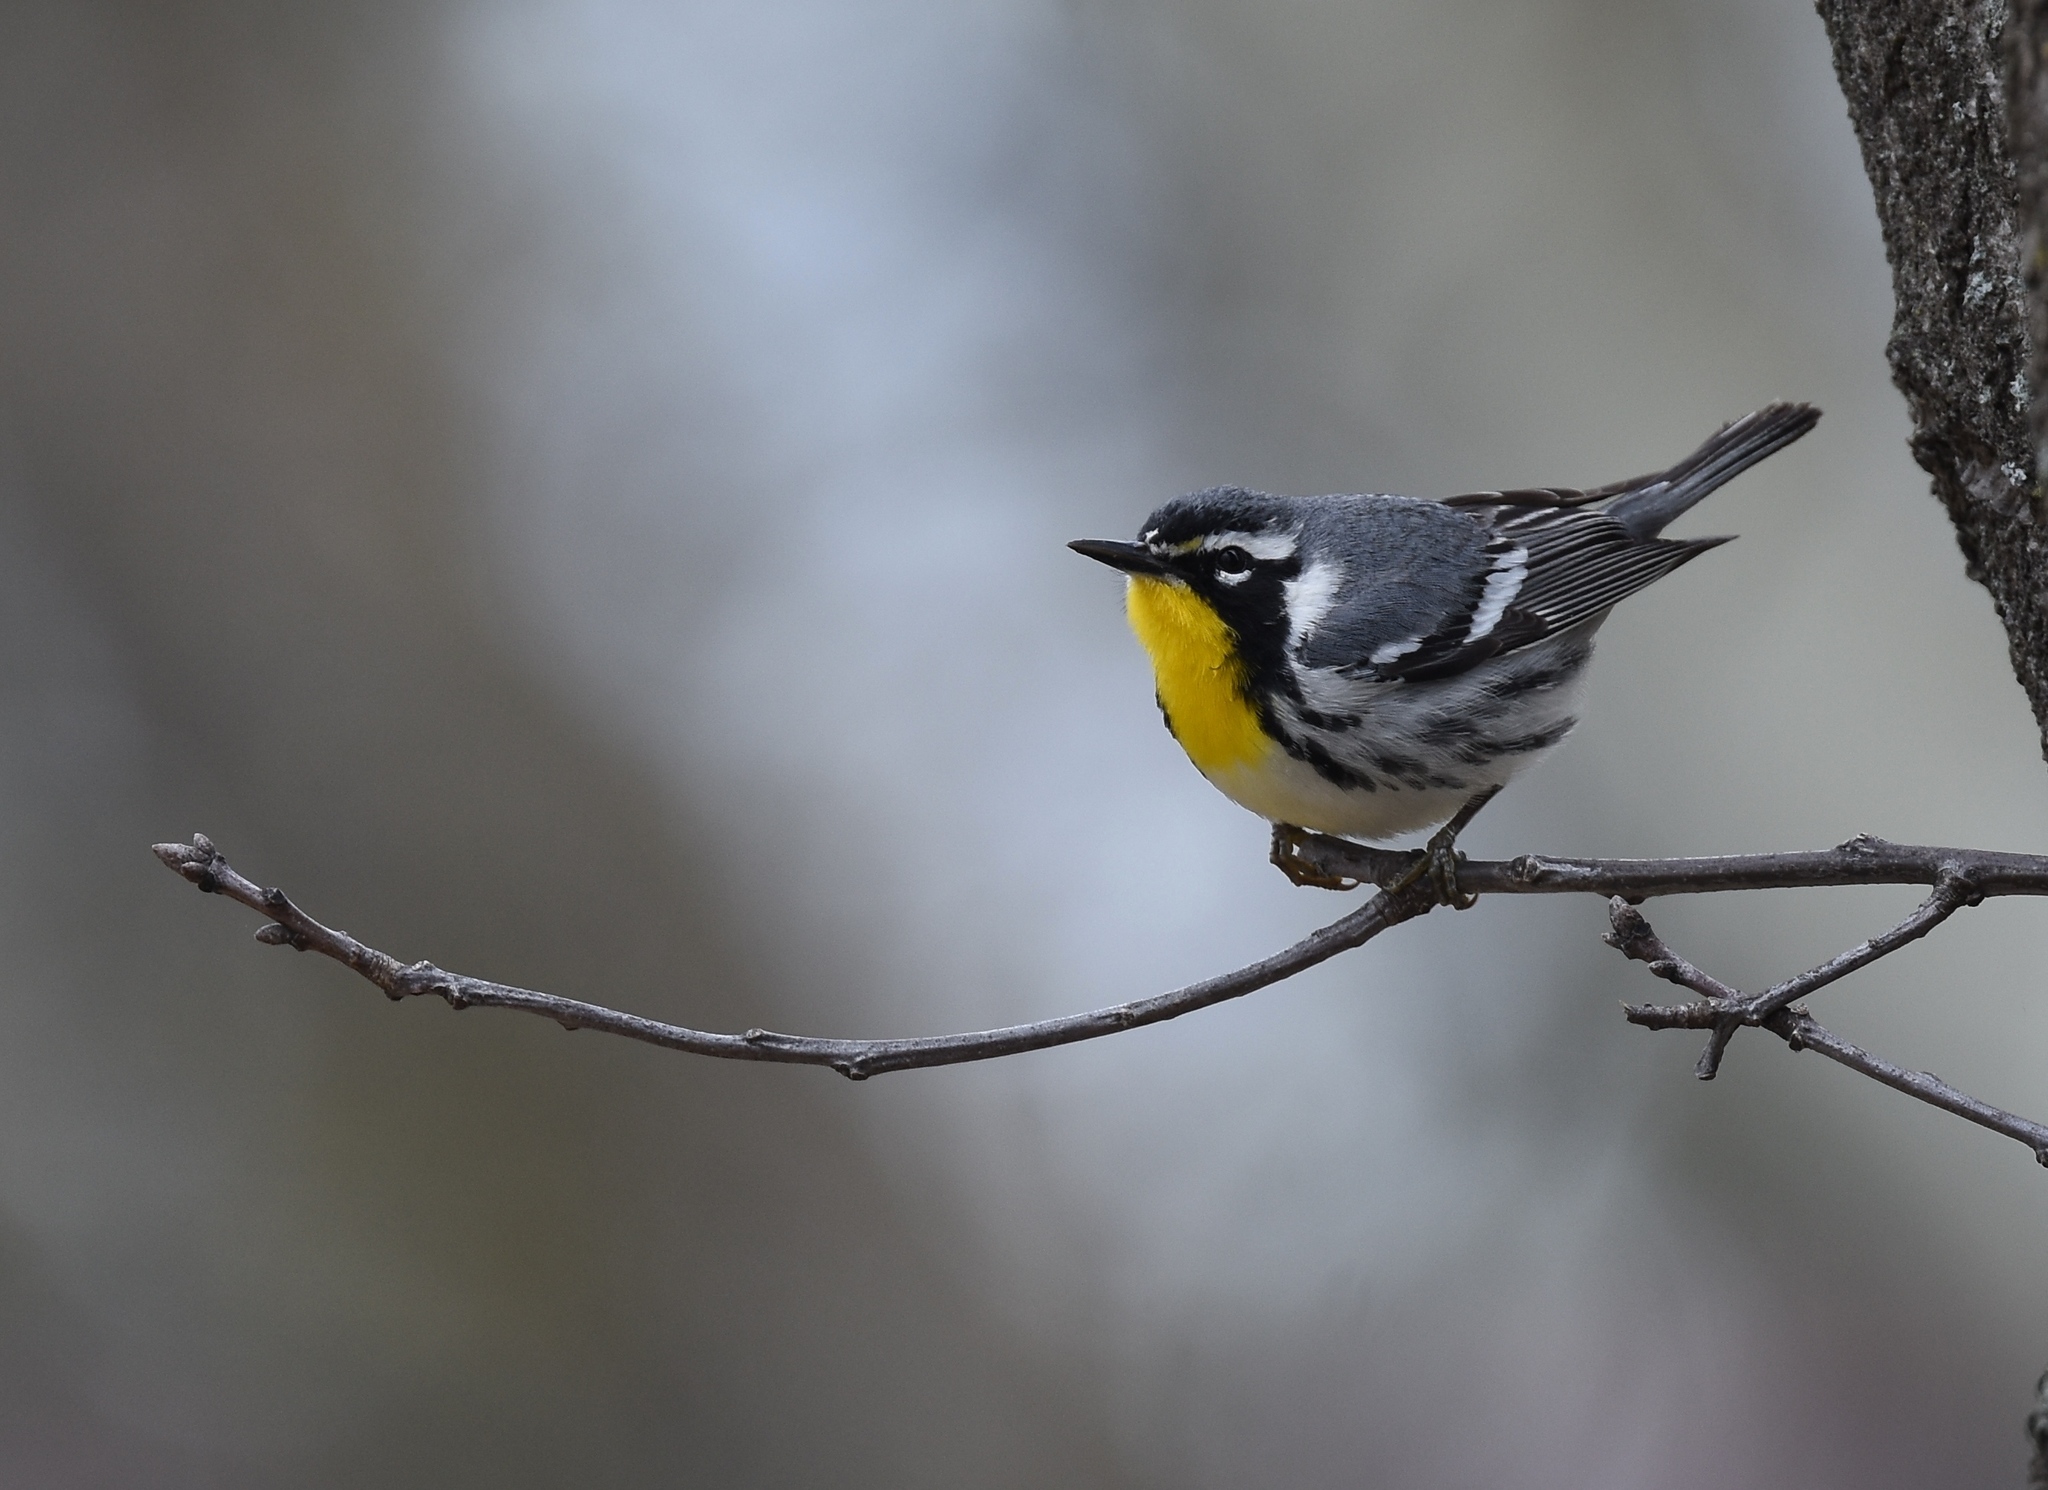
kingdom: Animalia
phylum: Chordata
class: Aves
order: Passeriformes
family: Parulidae
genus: Setophaga
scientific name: Setophaga dominica
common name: Yellow-throated warbler
